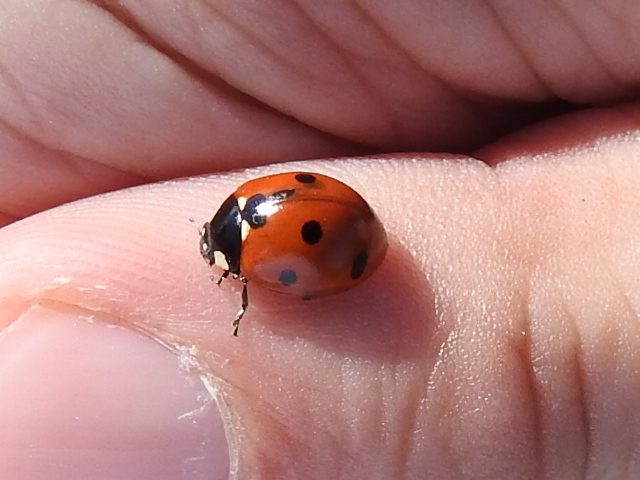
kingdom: Animalia
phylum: Arthropoda
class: Insecta
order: Coleoptera
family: Coccinellidae
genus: Coccinella
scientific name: Coccinella septempunctata
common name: Sevenspotted lady beetle
